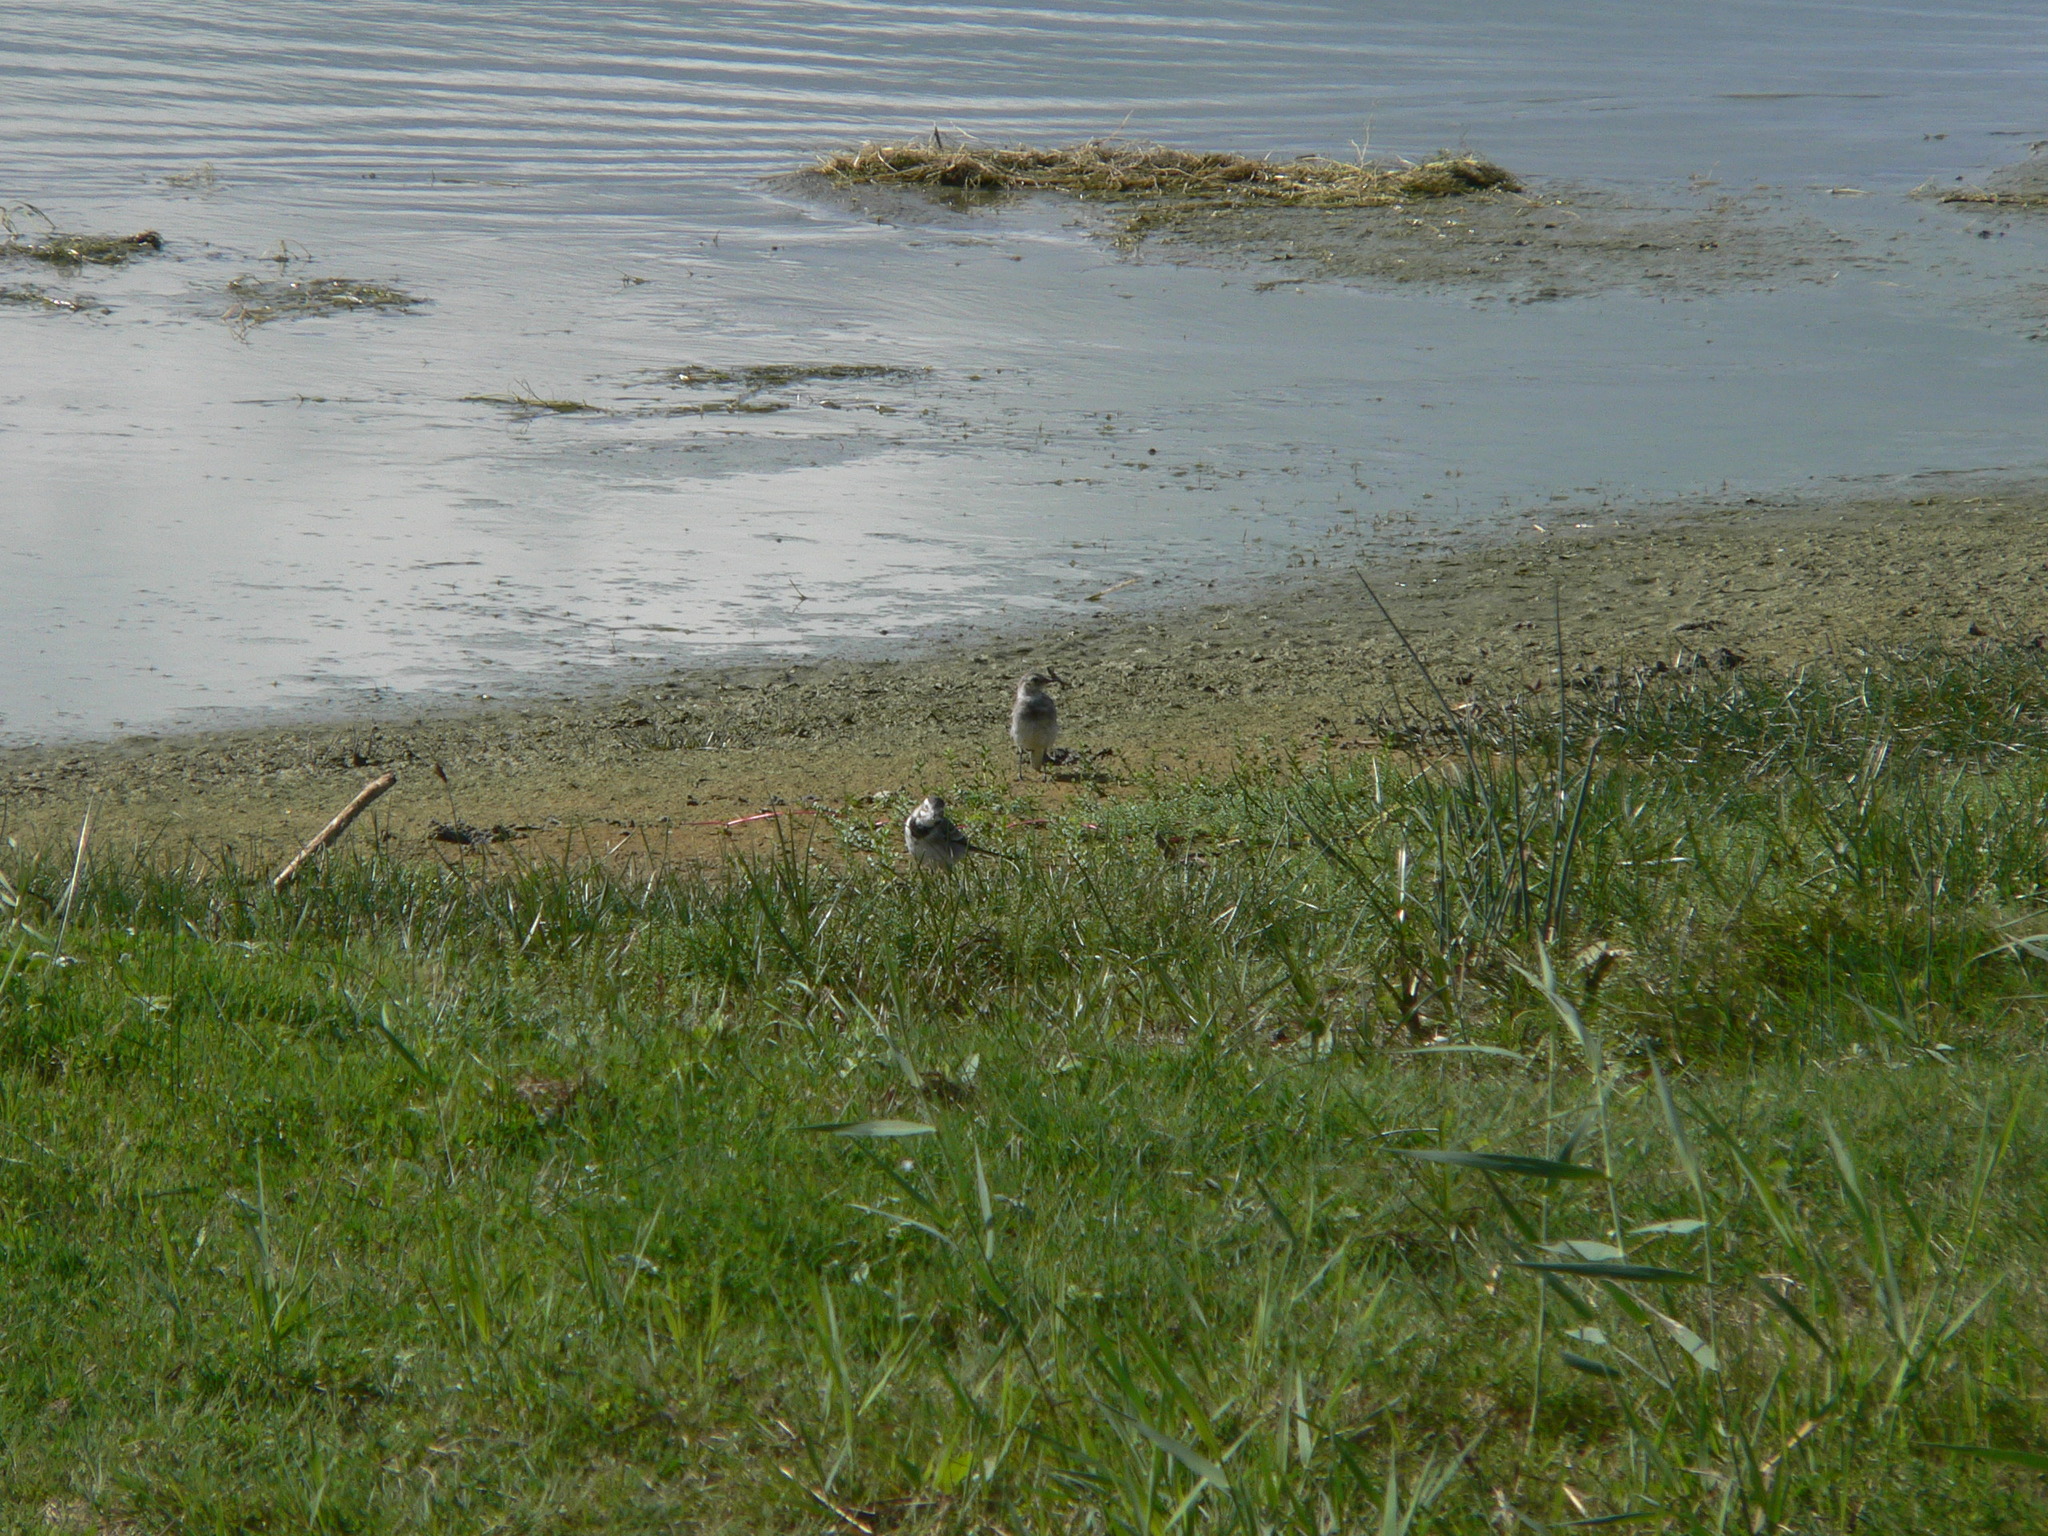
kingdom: Animalia
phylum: Chordata
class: Aves
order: Passeriformes
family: Motacillidae
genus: Motacilla
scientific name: Motacilla alba
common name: White wagtail
